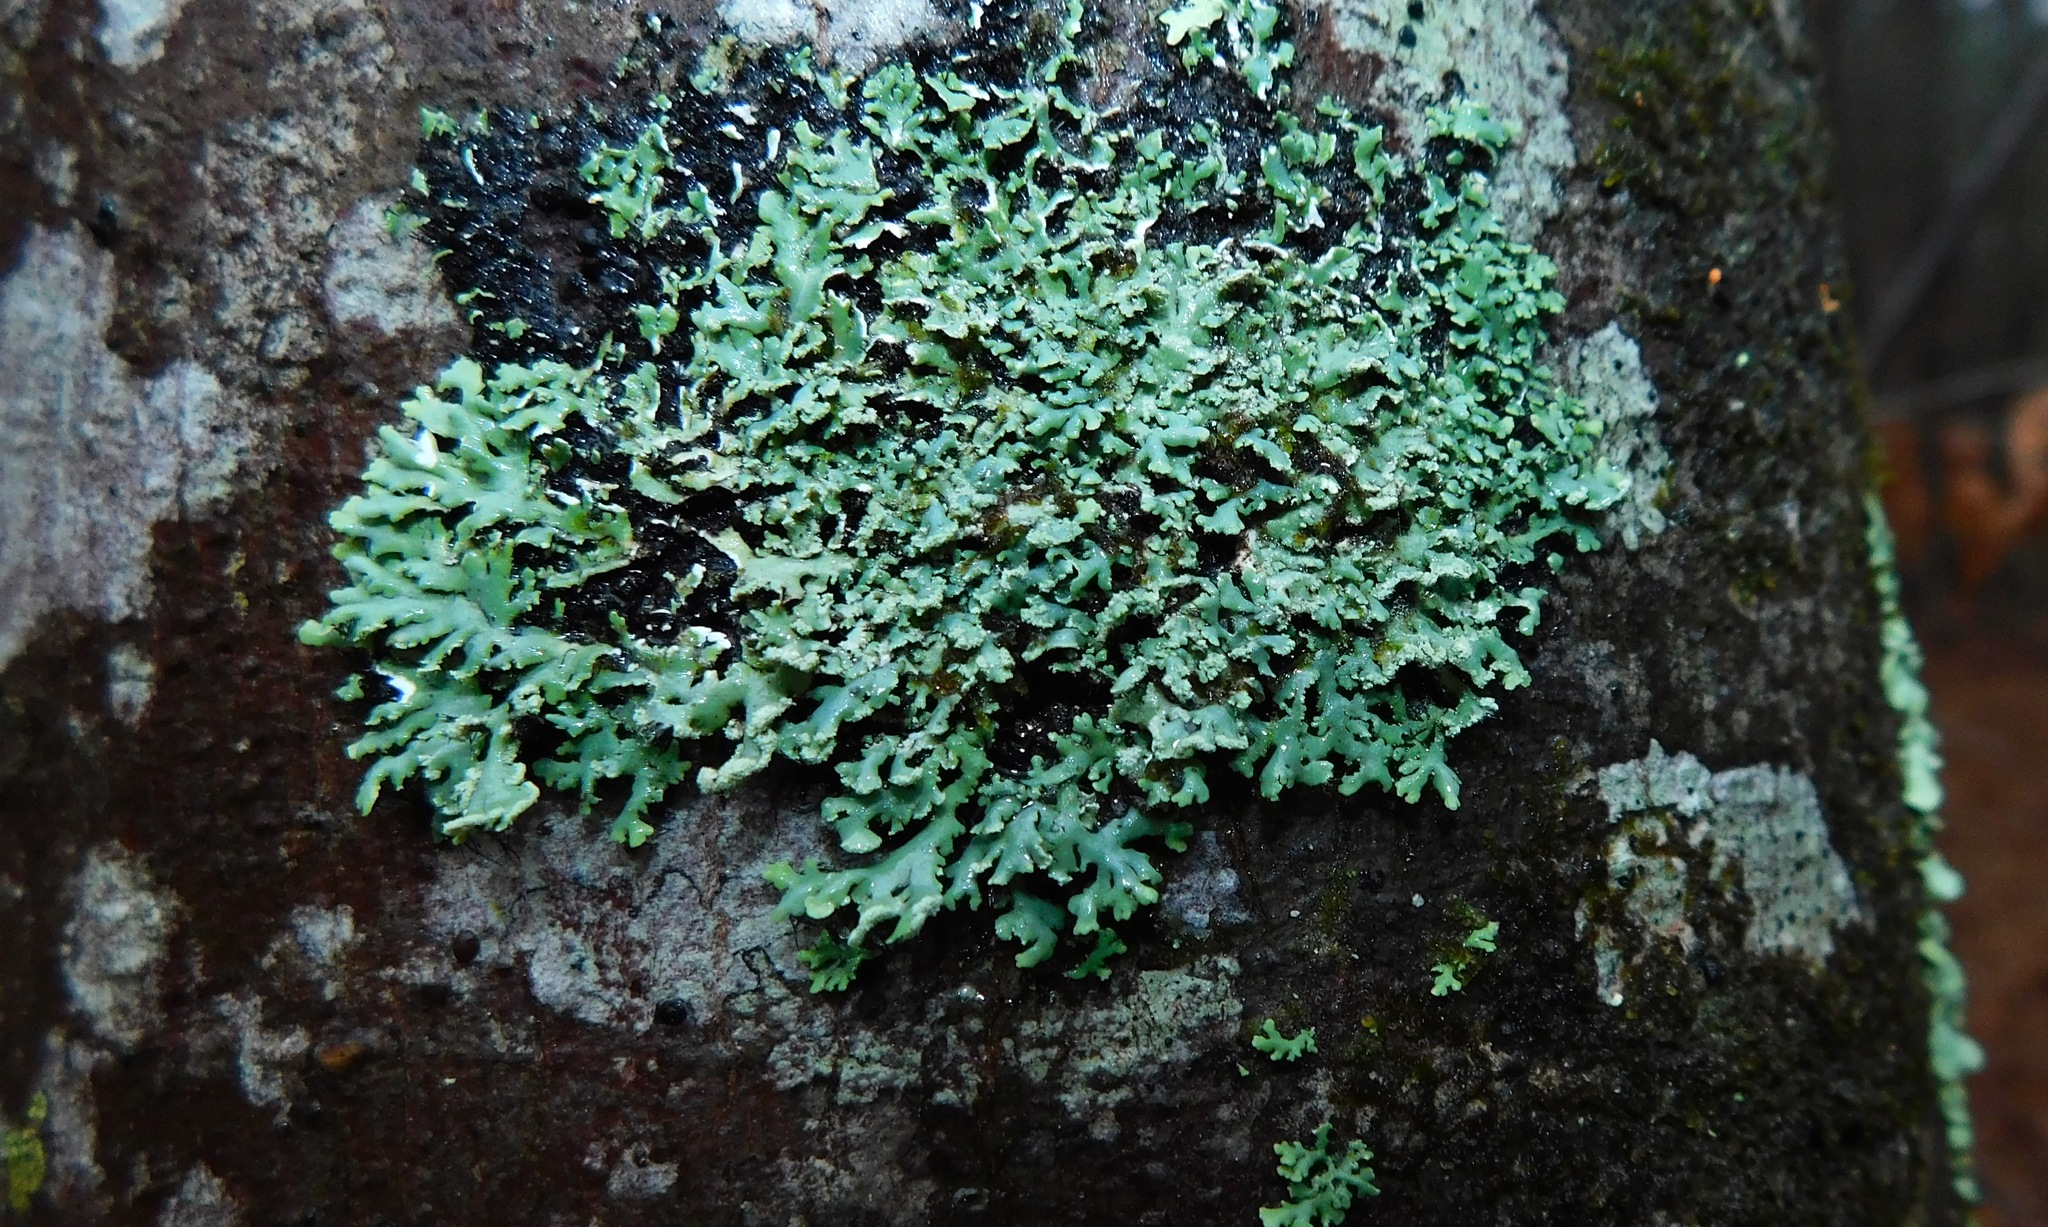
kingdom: Fungi
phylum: Ascomycota
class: Lecanoromycetes
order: Caliciales
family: Physciaceae
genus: Polyblastidium
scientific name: Polyblastidium neglectum
